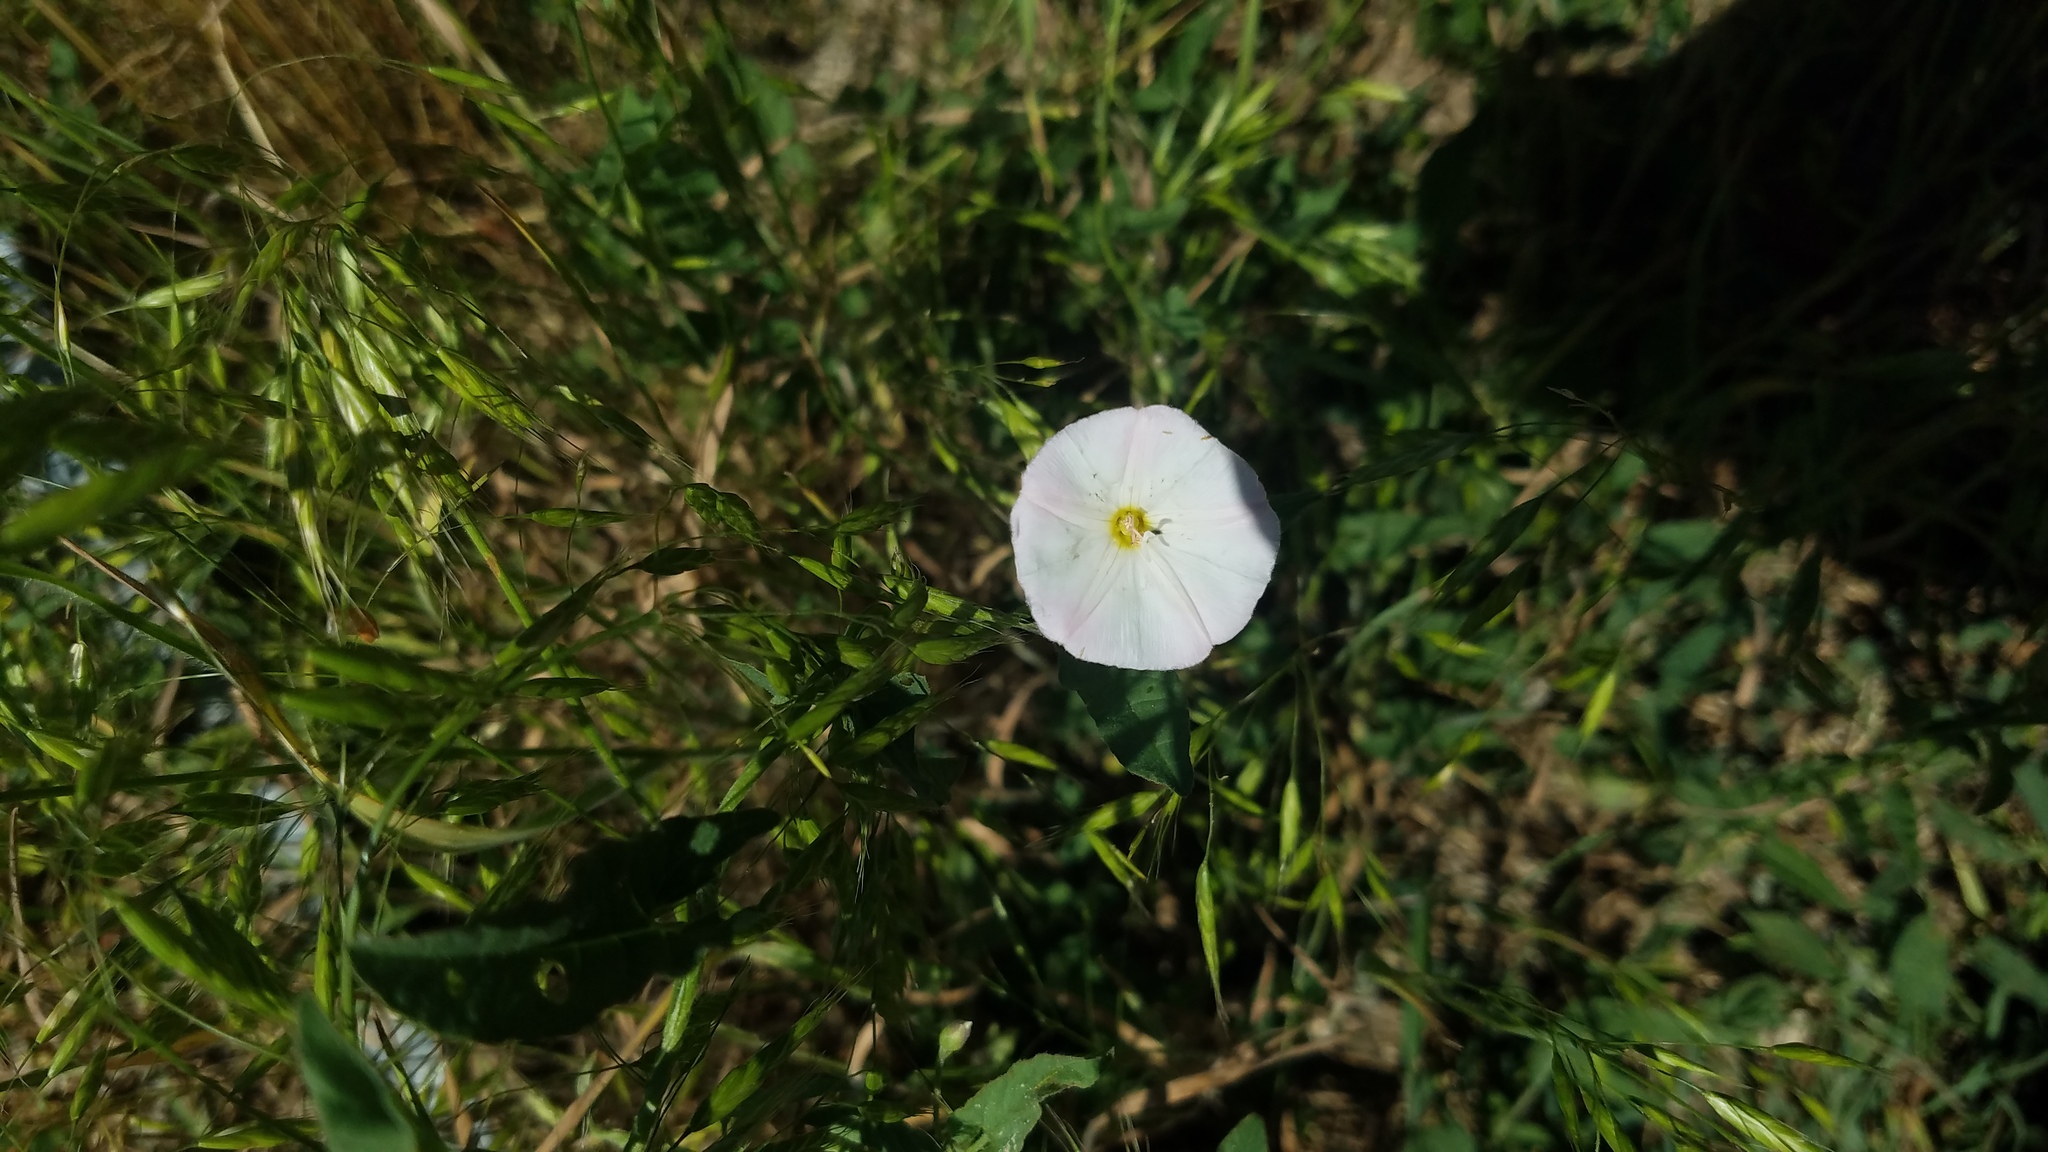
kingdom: Plantae
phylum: Tracheophyta
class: Magnoliopsida
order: Solanales
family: Convolvulaceae
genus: Convolvulus
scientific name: Convolvulus arvensis
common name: Field bindweed
